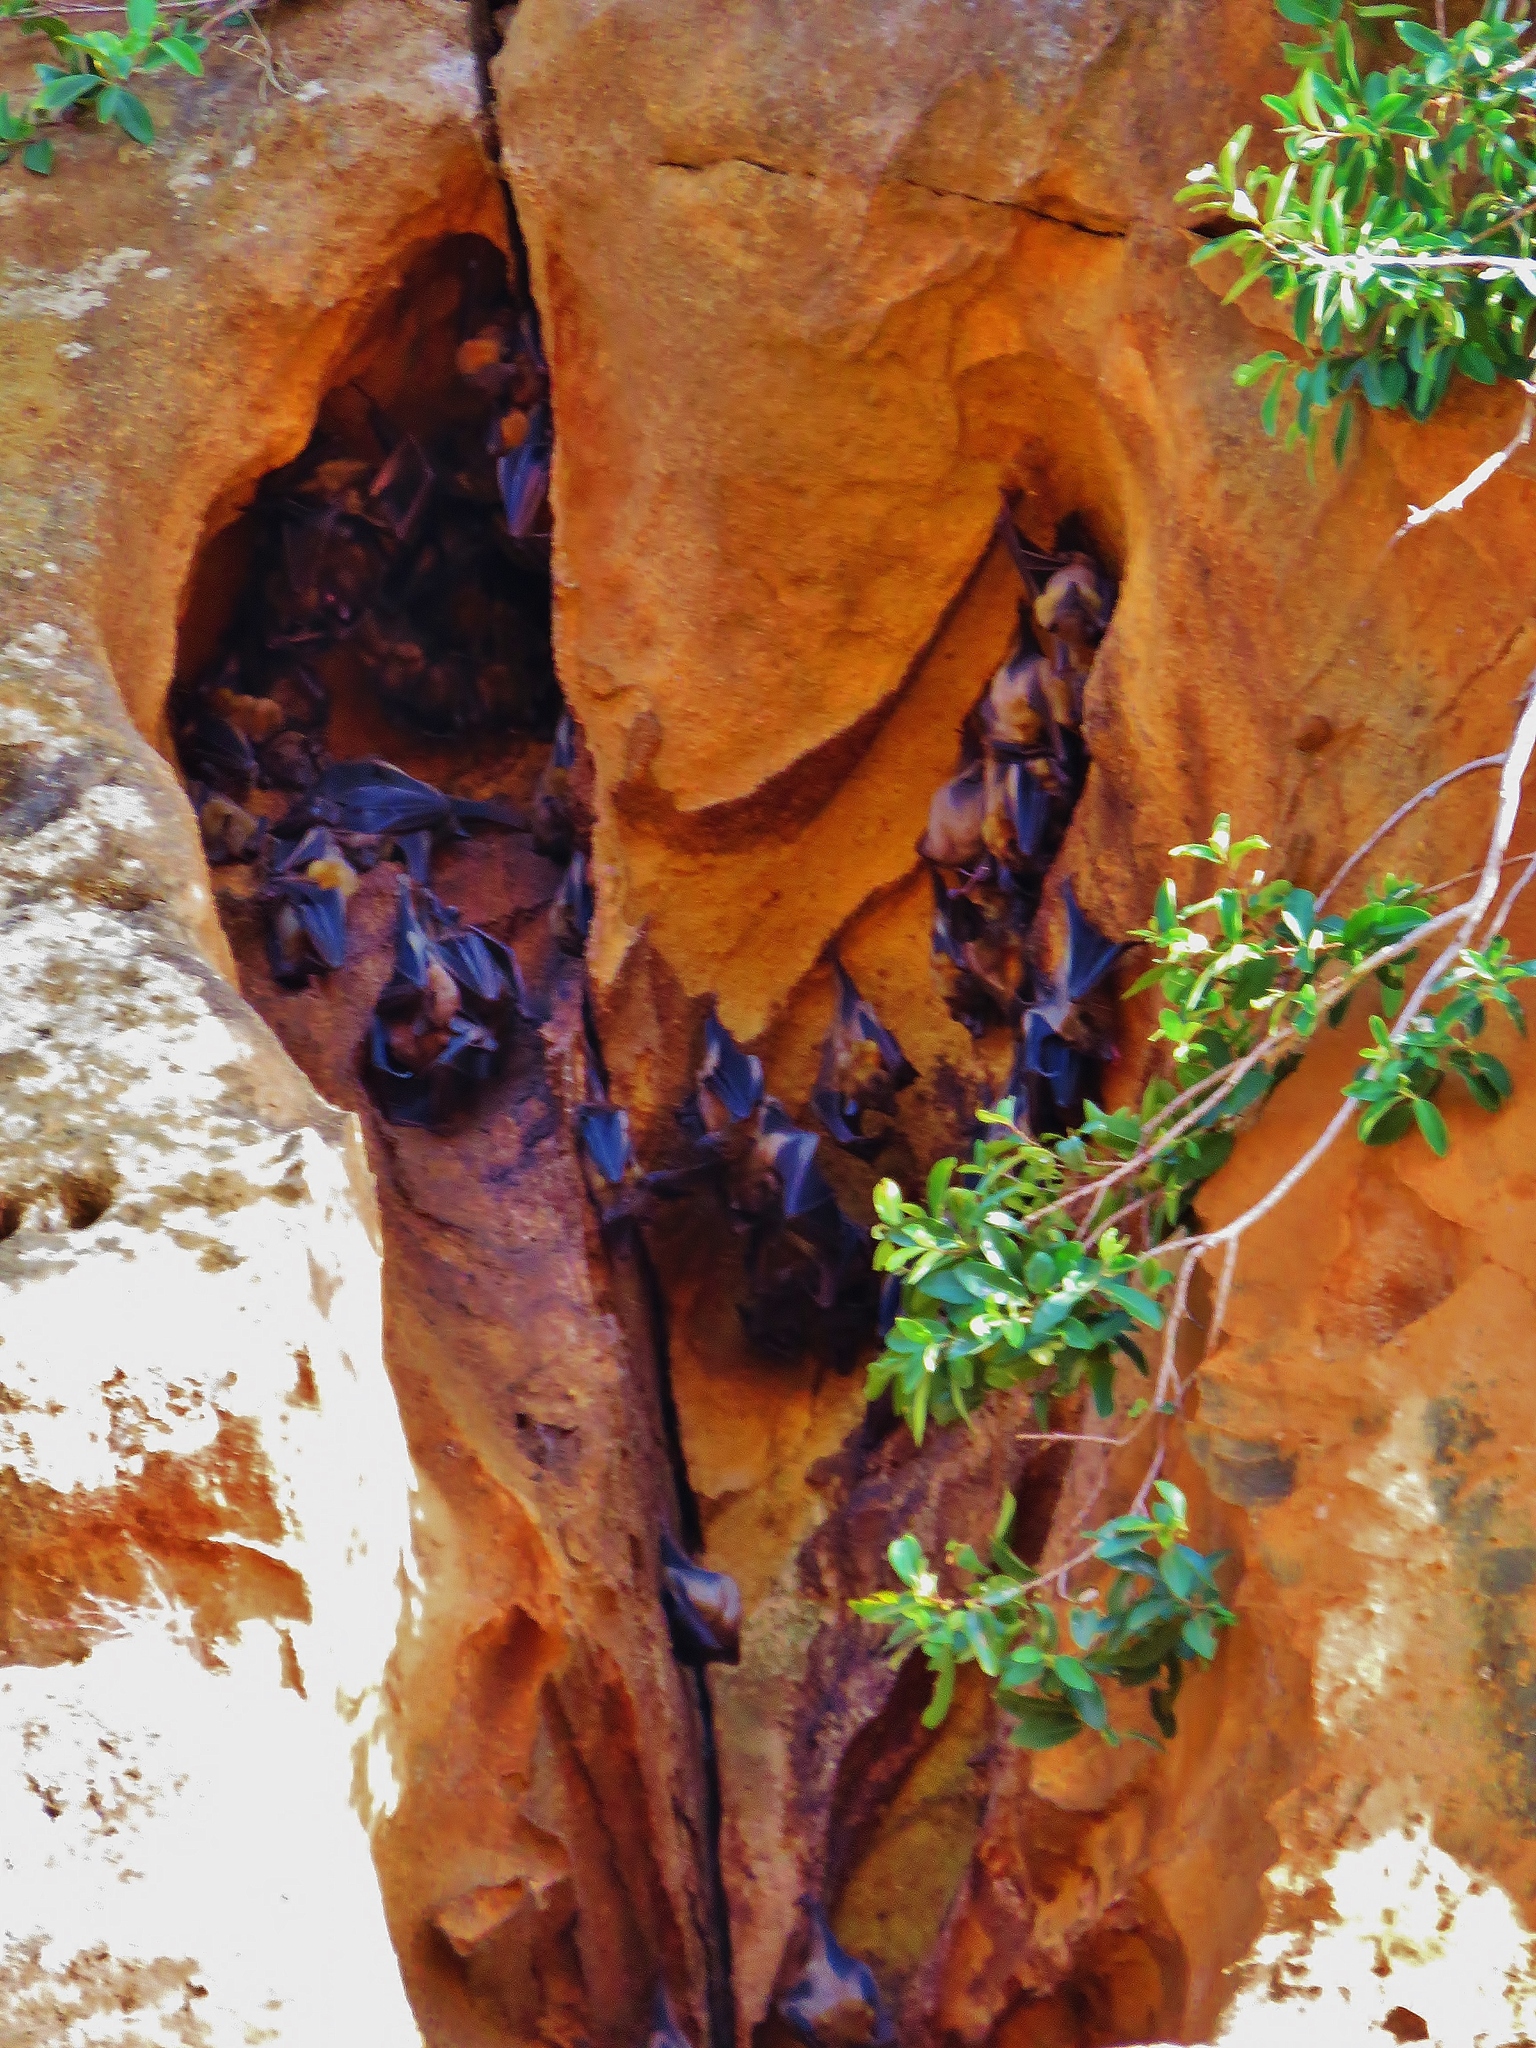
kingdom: Animalia
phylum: Chordata
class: Mammalia
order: Chiroptera
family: Pteropodidae
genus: Eidolon
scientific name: Eidolon dupreanum
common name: Madagascan fruit bat
